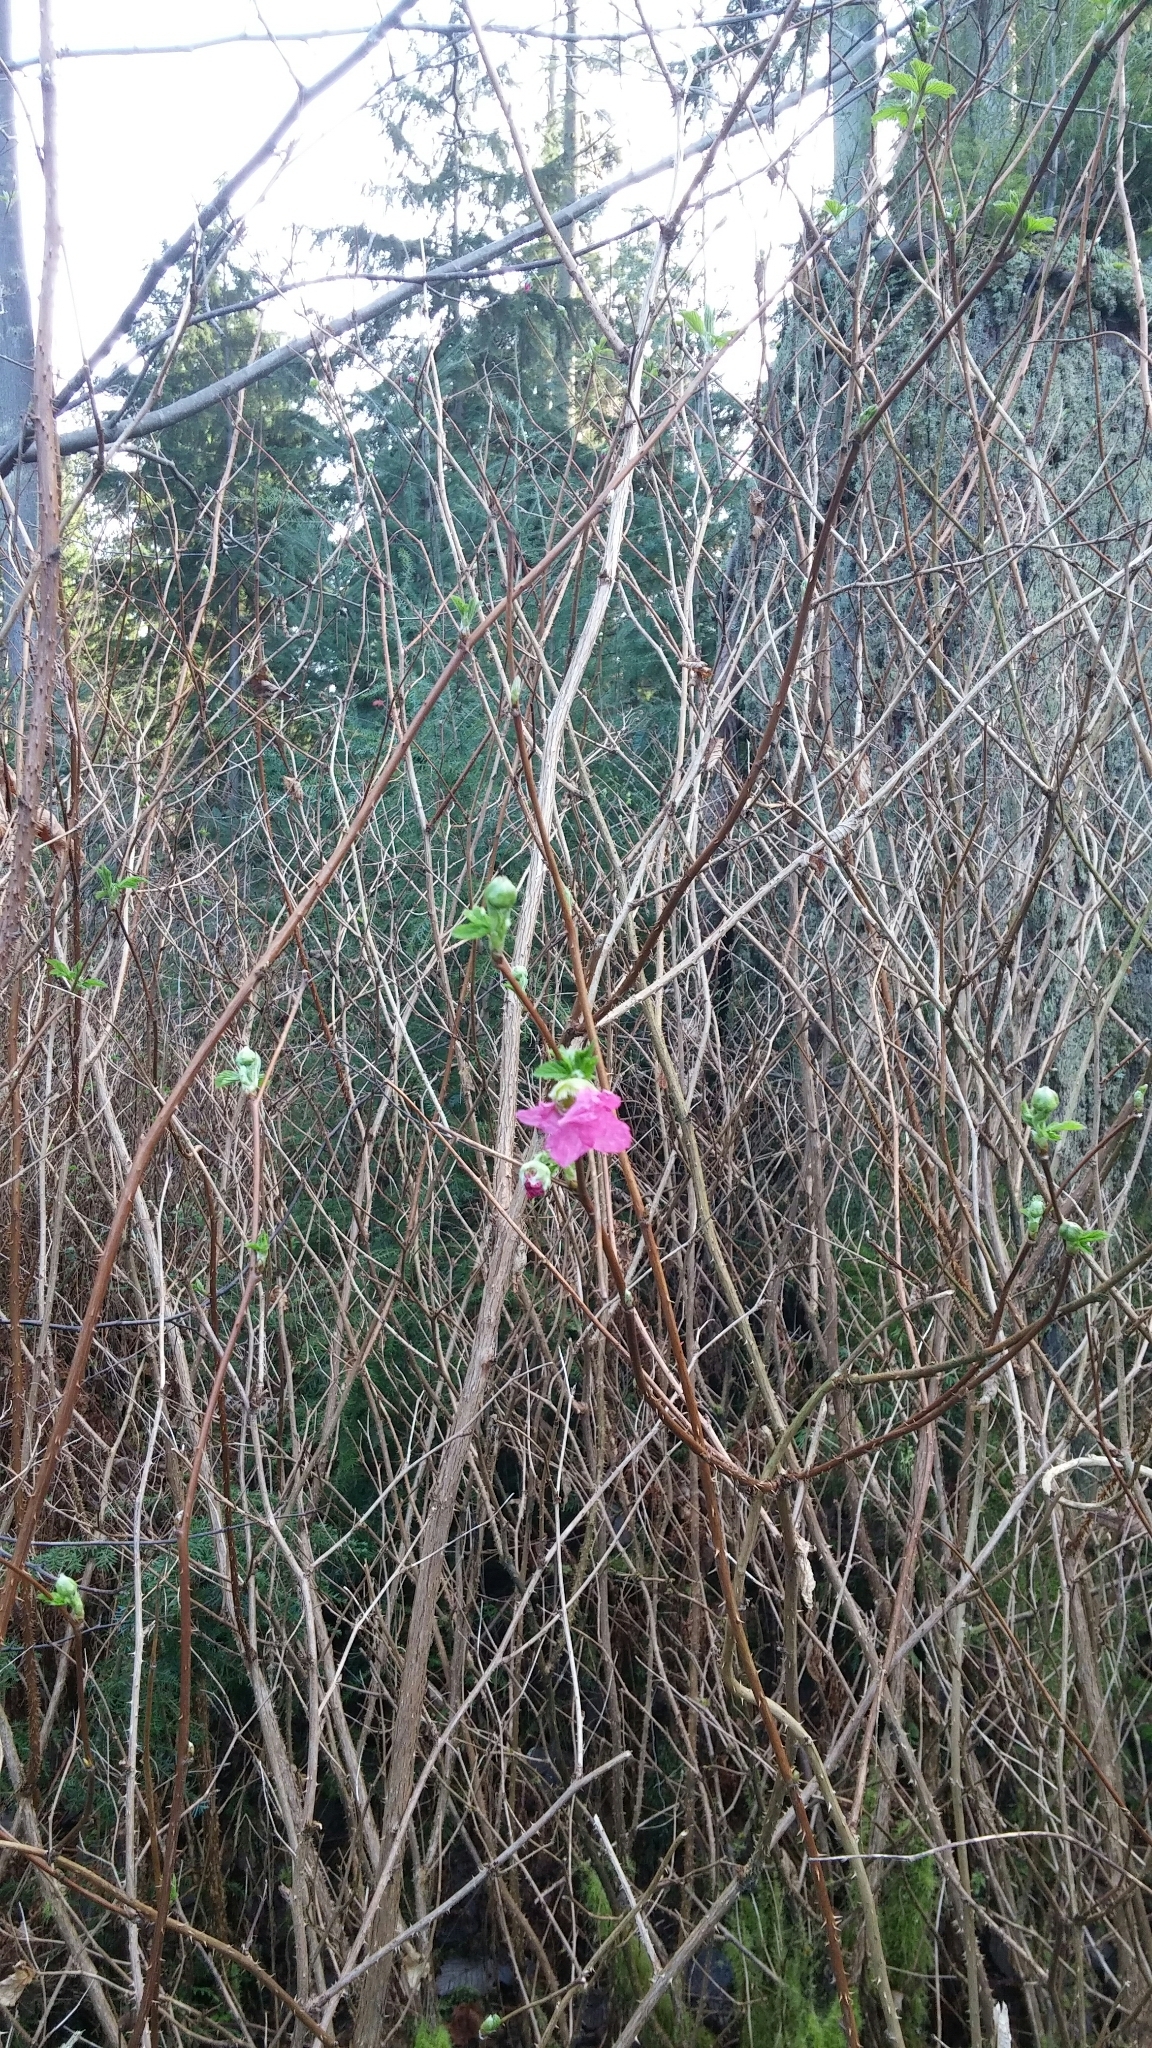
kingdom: Plantae
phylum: Tracheophyta
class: Magnoliopsida
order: Rosales
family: Rosaceae
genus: Rubus
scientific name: Rubus spectabilis
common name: Salmonberry
